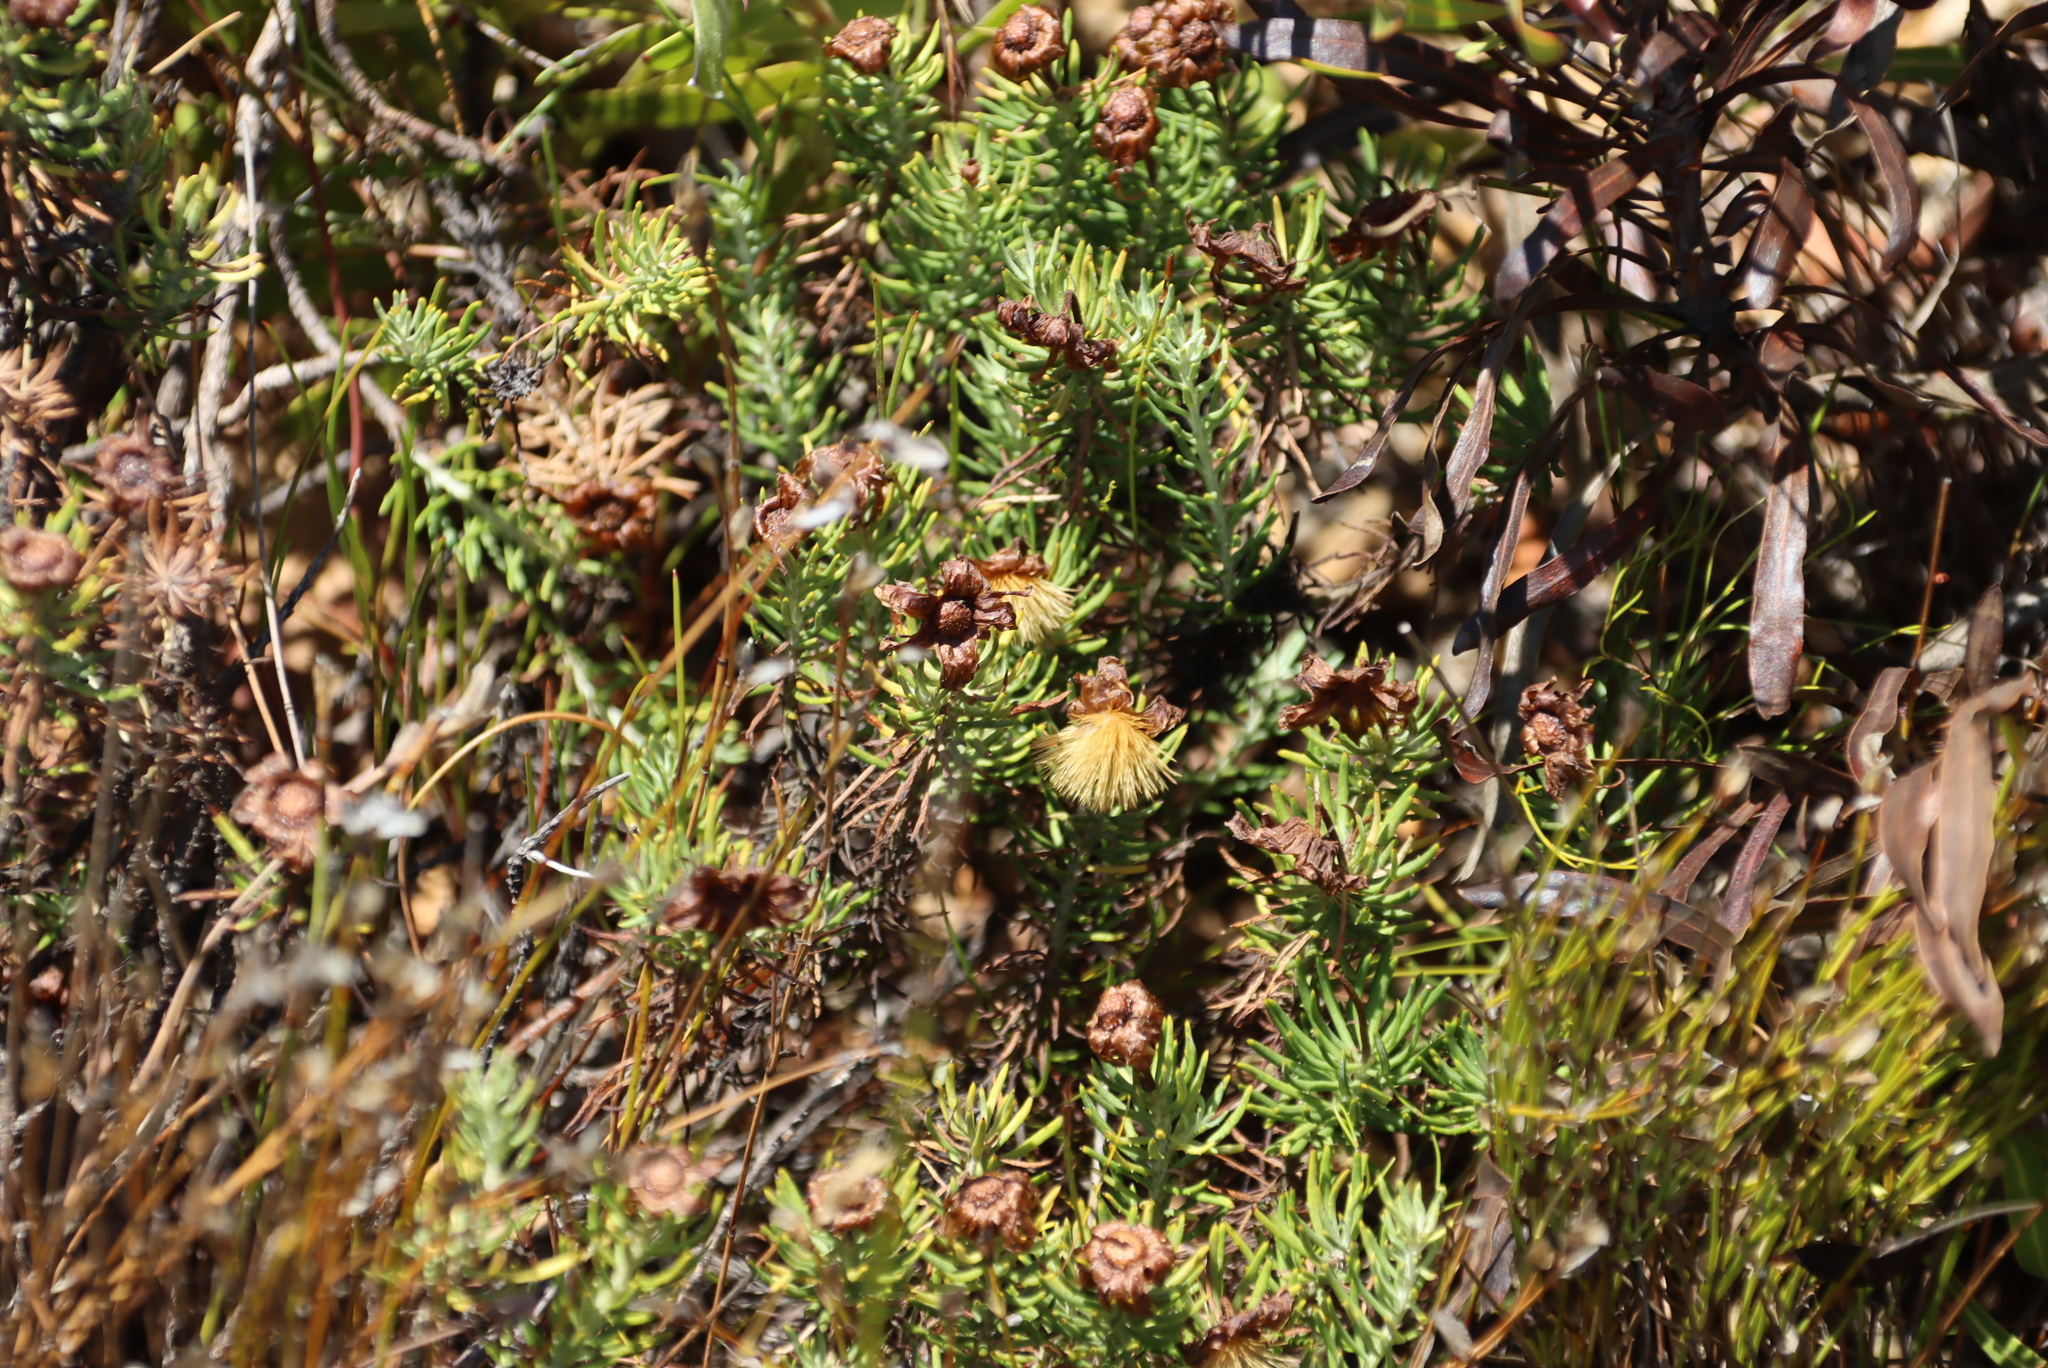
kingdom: Plantae
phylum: Tracheophyta
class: Magnoliopsida
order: Asterales
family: Asteraceae
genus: Heterolepis
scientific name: Heterolepis aliena
